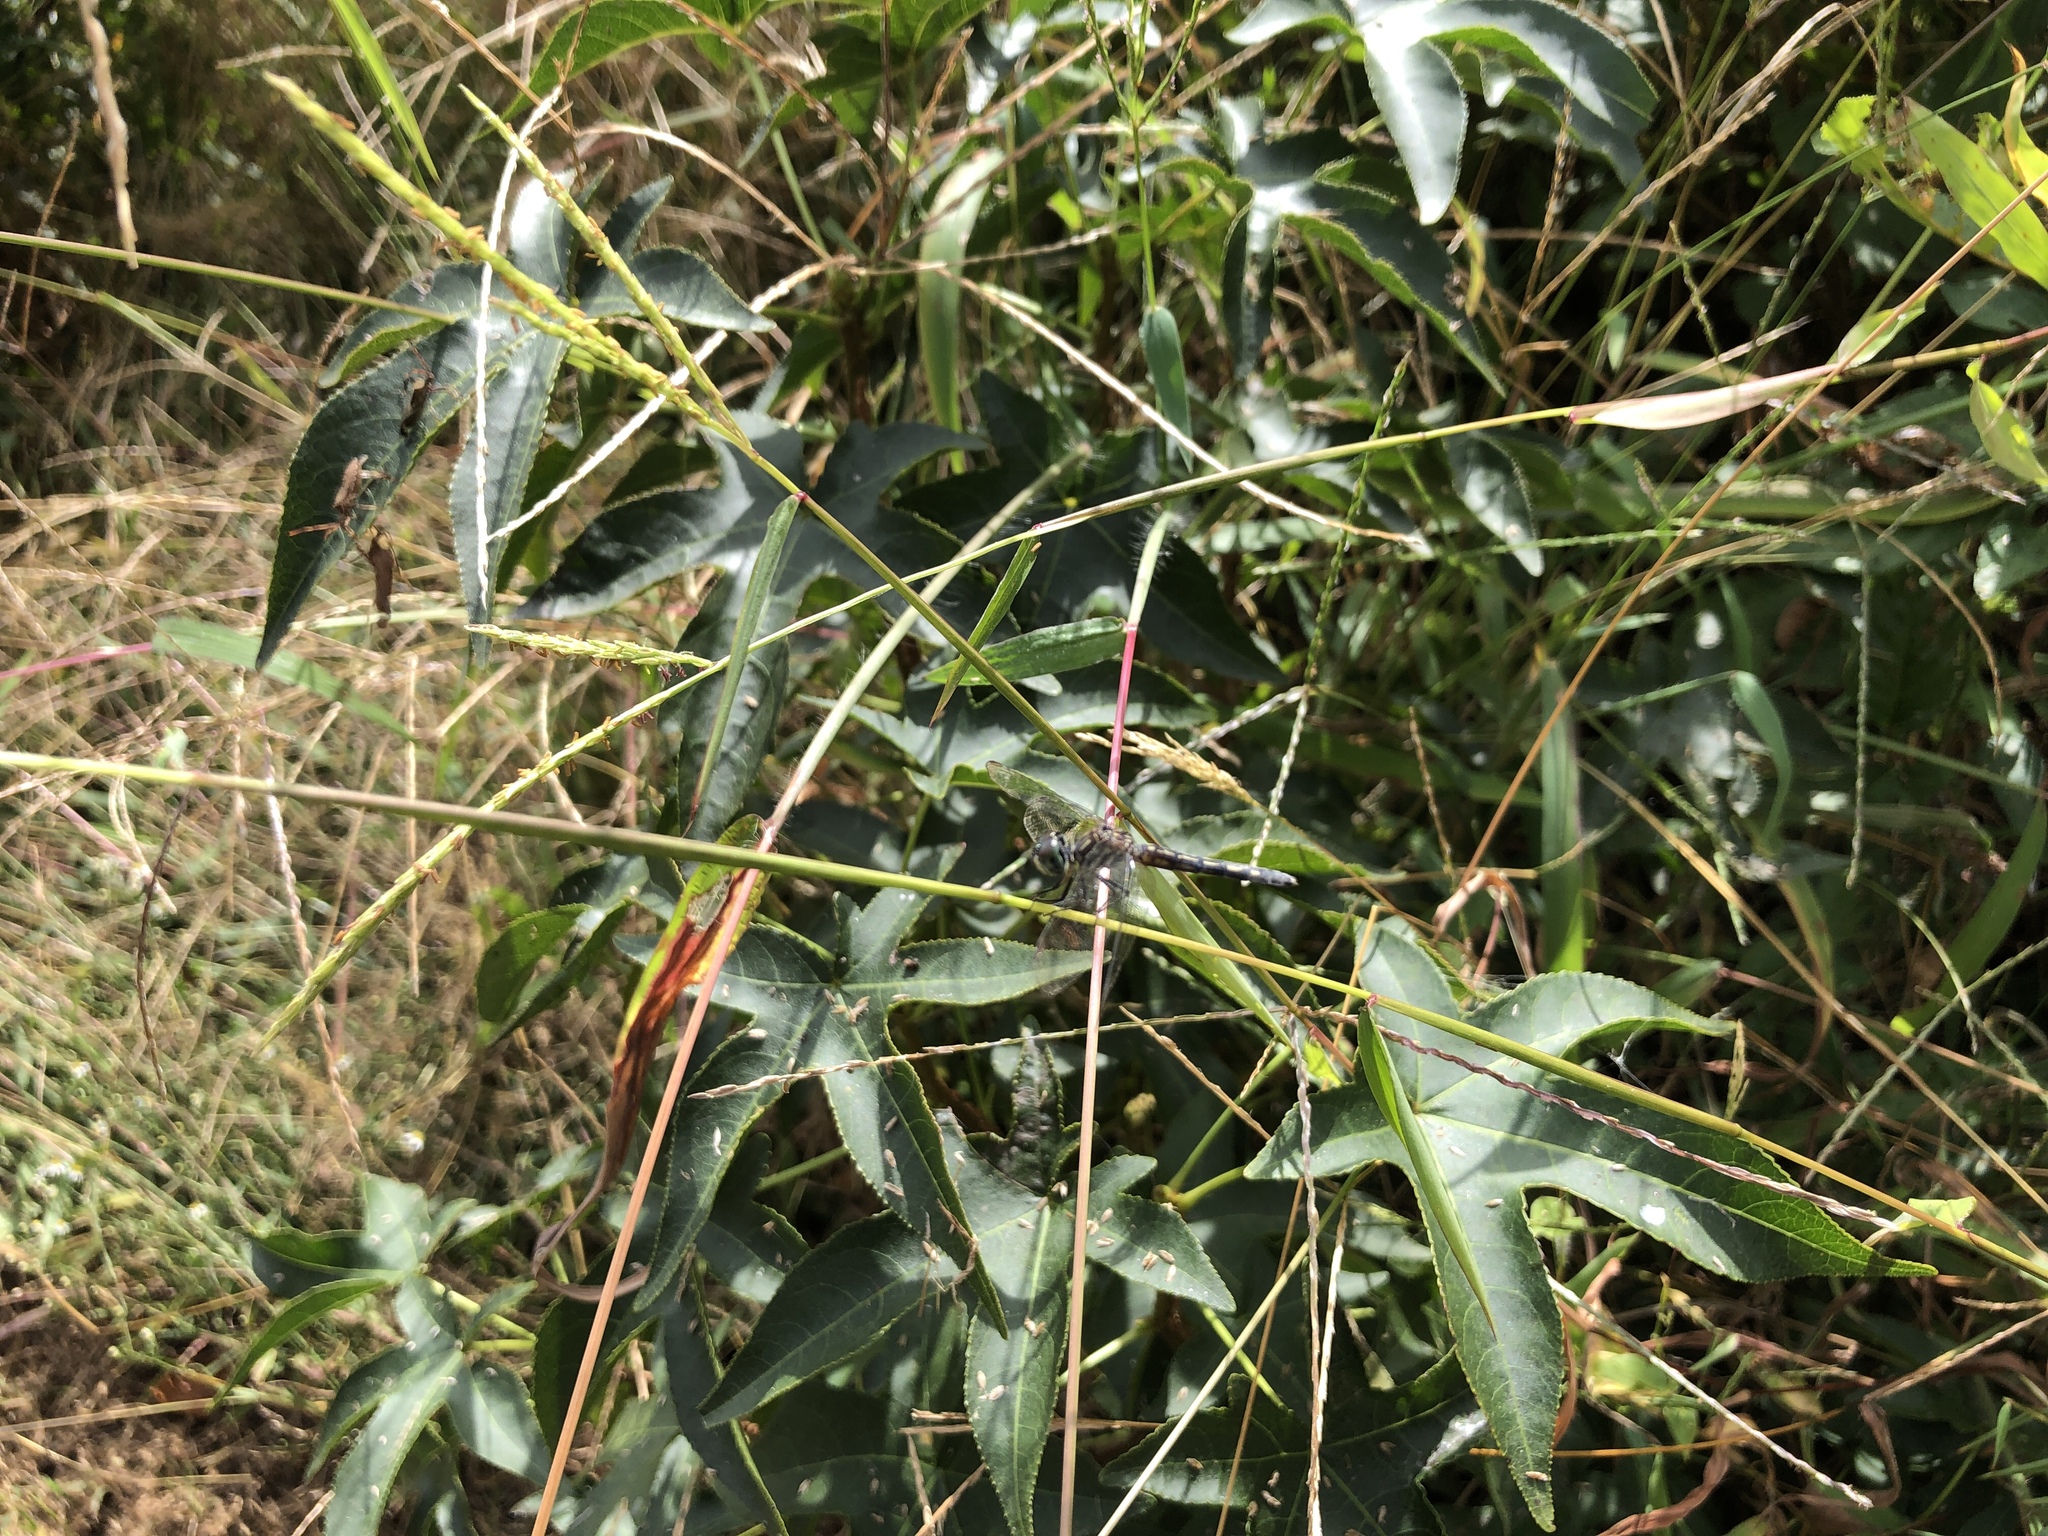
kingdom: Animalia
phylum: Arthropoda
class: Insecta
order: Odonata
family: Libellulidae
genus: Pachydiplax
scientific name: Pachydiplax longipennis
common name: Blue dasher
